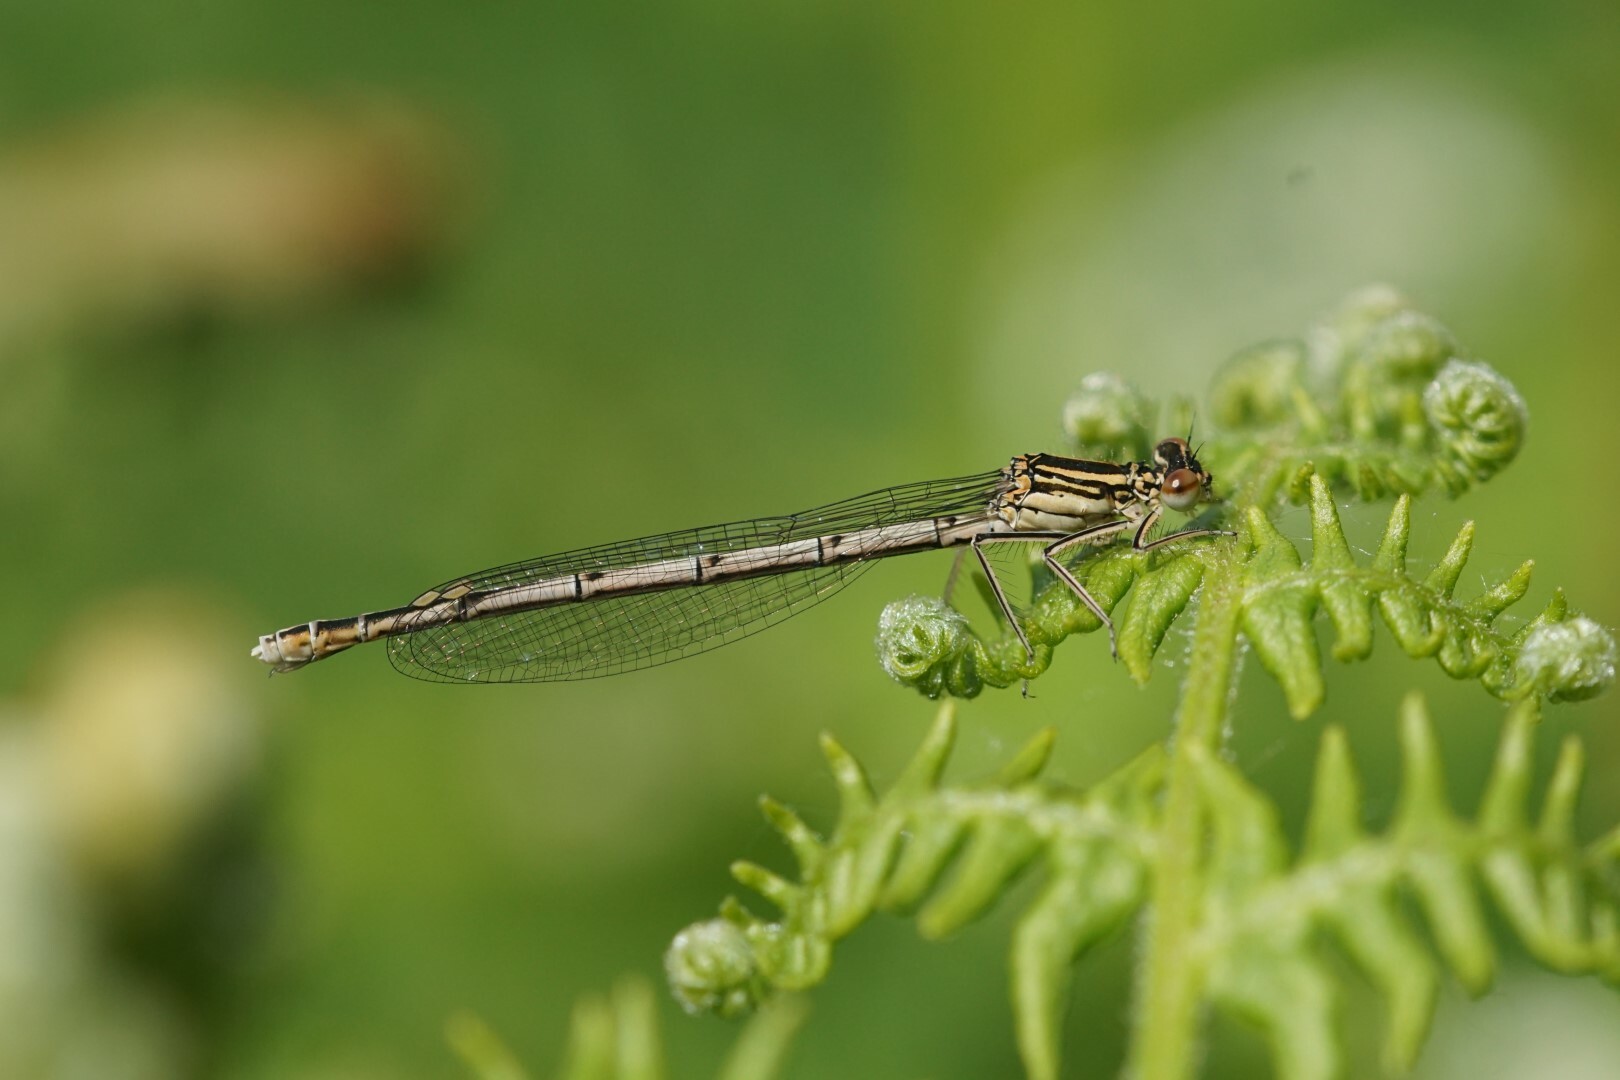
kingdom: Animalia
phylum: Arthropoda
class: Insecta
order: Odonata
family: Platycnemididae
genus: Platycnemis
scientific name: Platycnemis pennipes
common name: White-legged damselfly
